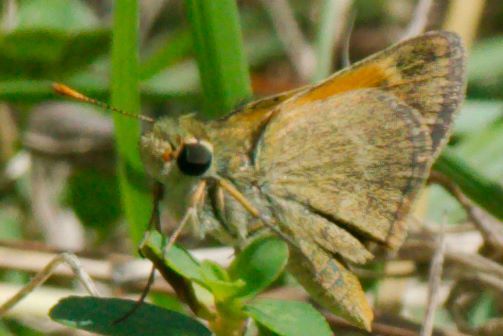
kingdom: Animalia
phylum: Arthropoda
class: Insecta
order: Lepidoptera
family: Hesperiidae
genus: Polites
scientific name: Polites baracoa
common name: Baracoa skipper
